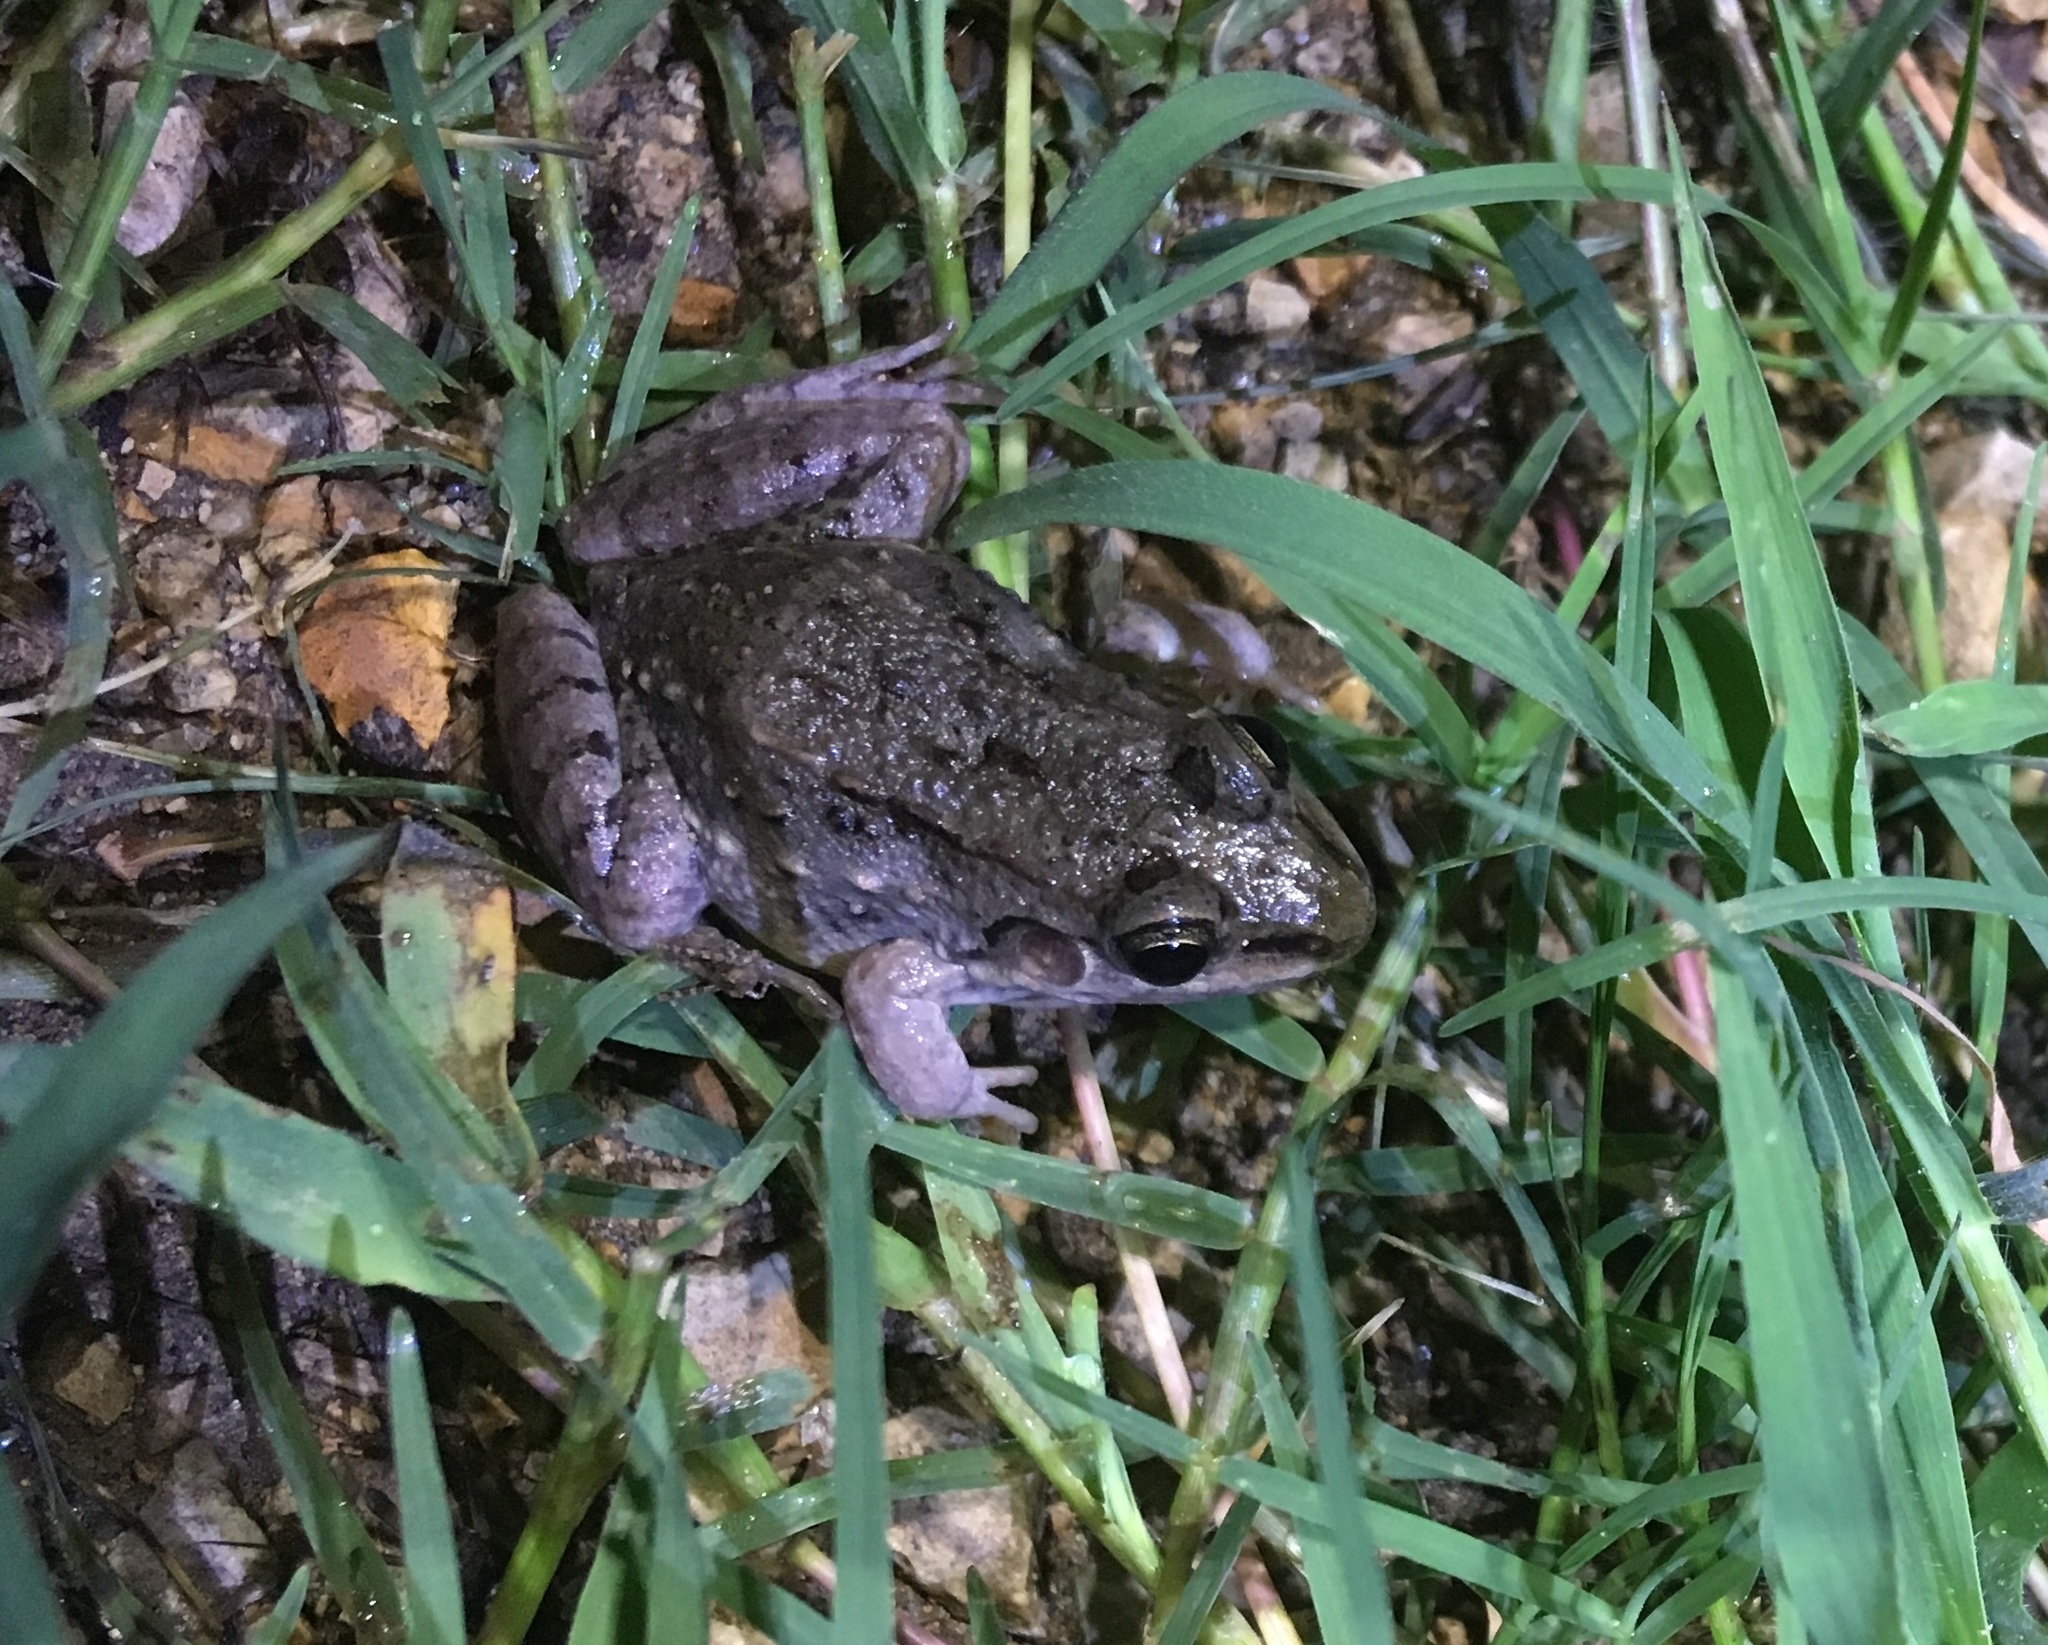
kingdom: Animalia
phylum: Chordata
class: Amphibia
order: Anura
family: Leptodactylidae
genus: Leptodactylus
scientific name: Leptodactylus fragilis
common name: Mexican white-lipped frog
